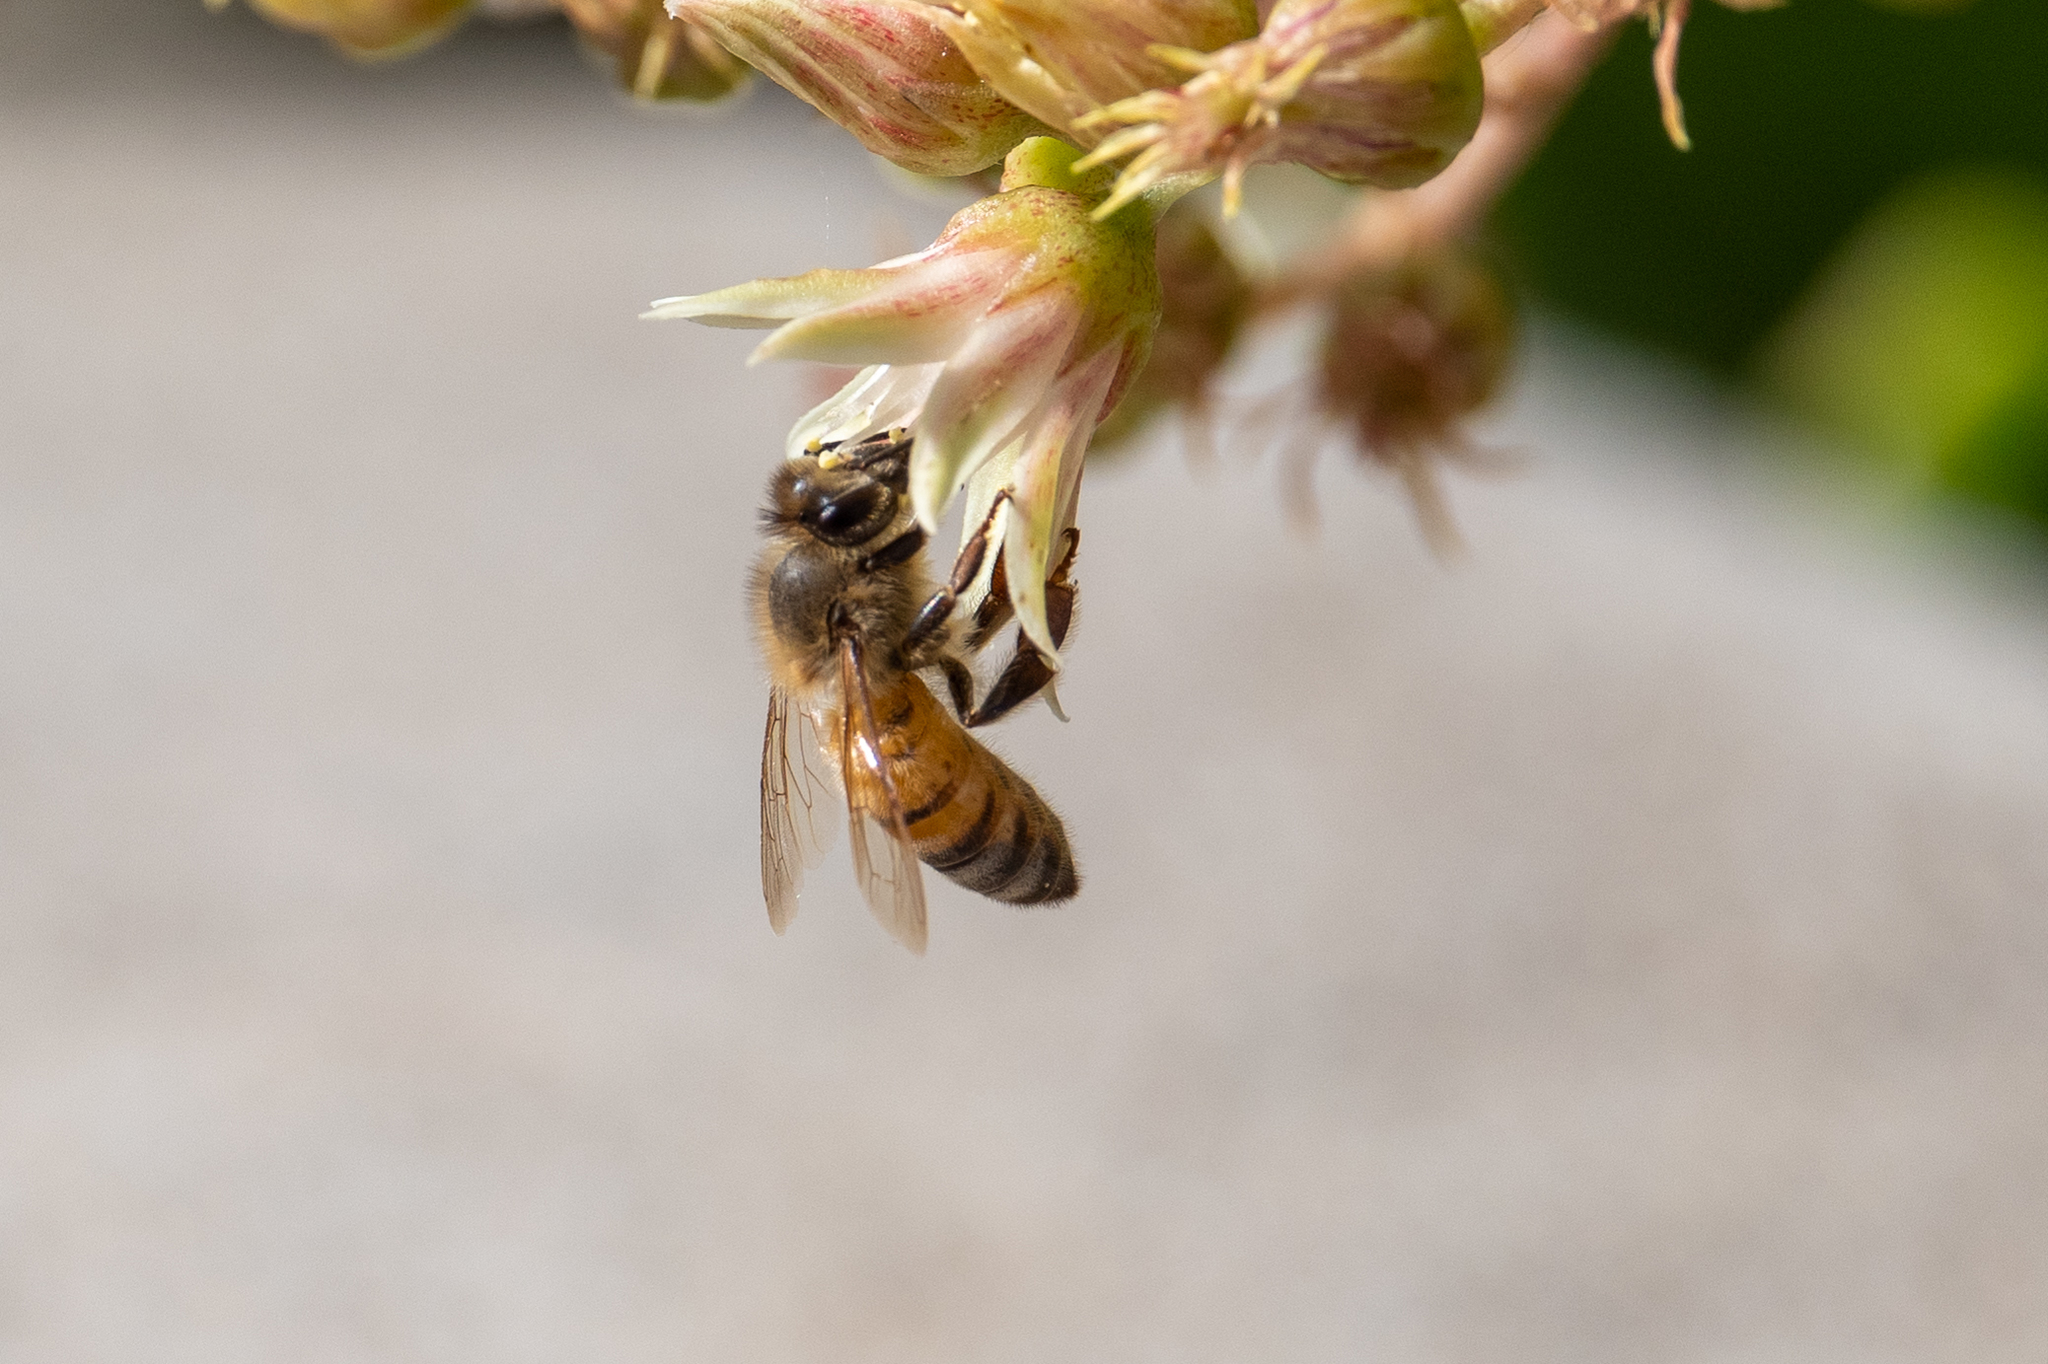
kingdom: Animalia
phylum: Arthropoda
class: Insecta
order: Hymenoptera
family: Apidae
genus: Apis
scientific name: Apis mellifera
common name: Honey bee
